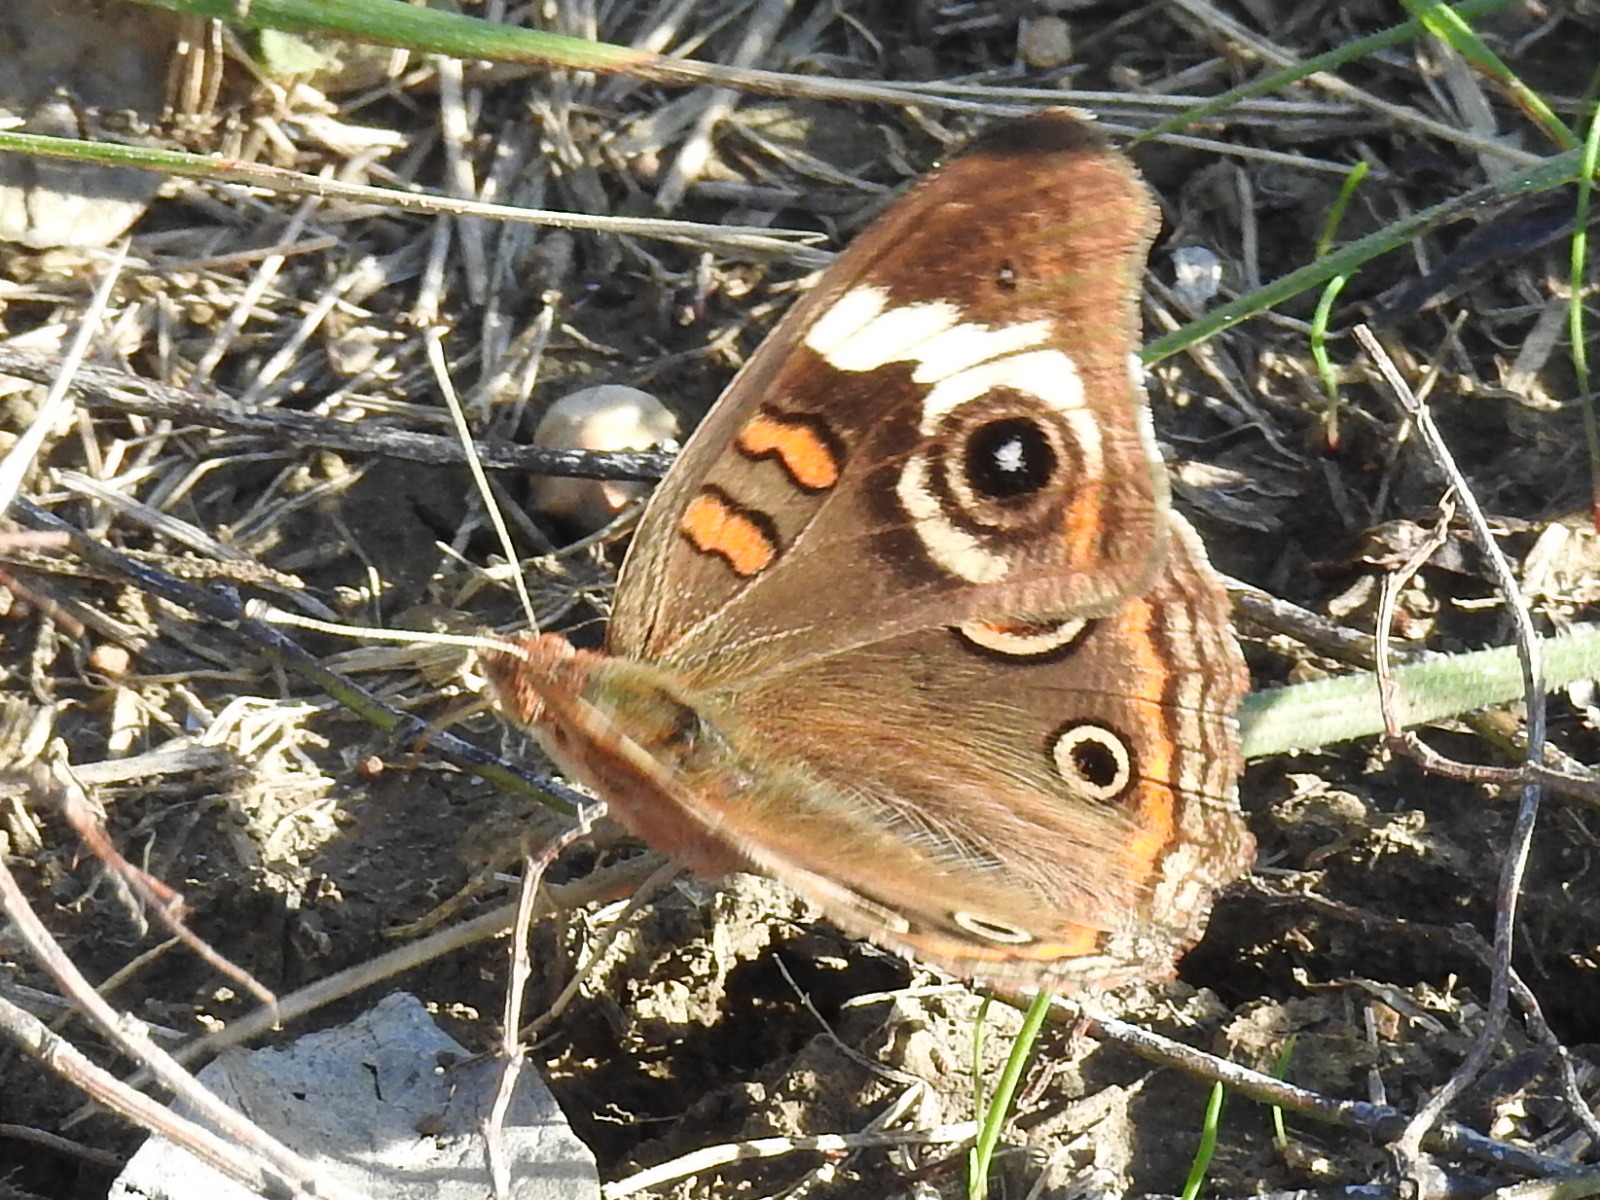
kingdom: Animalia
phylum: Arthropoda
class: Insecta
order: Lepidoptera
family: Nymphalidae
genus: Junonia
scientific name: Junonia coenia
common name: Common buckeye
